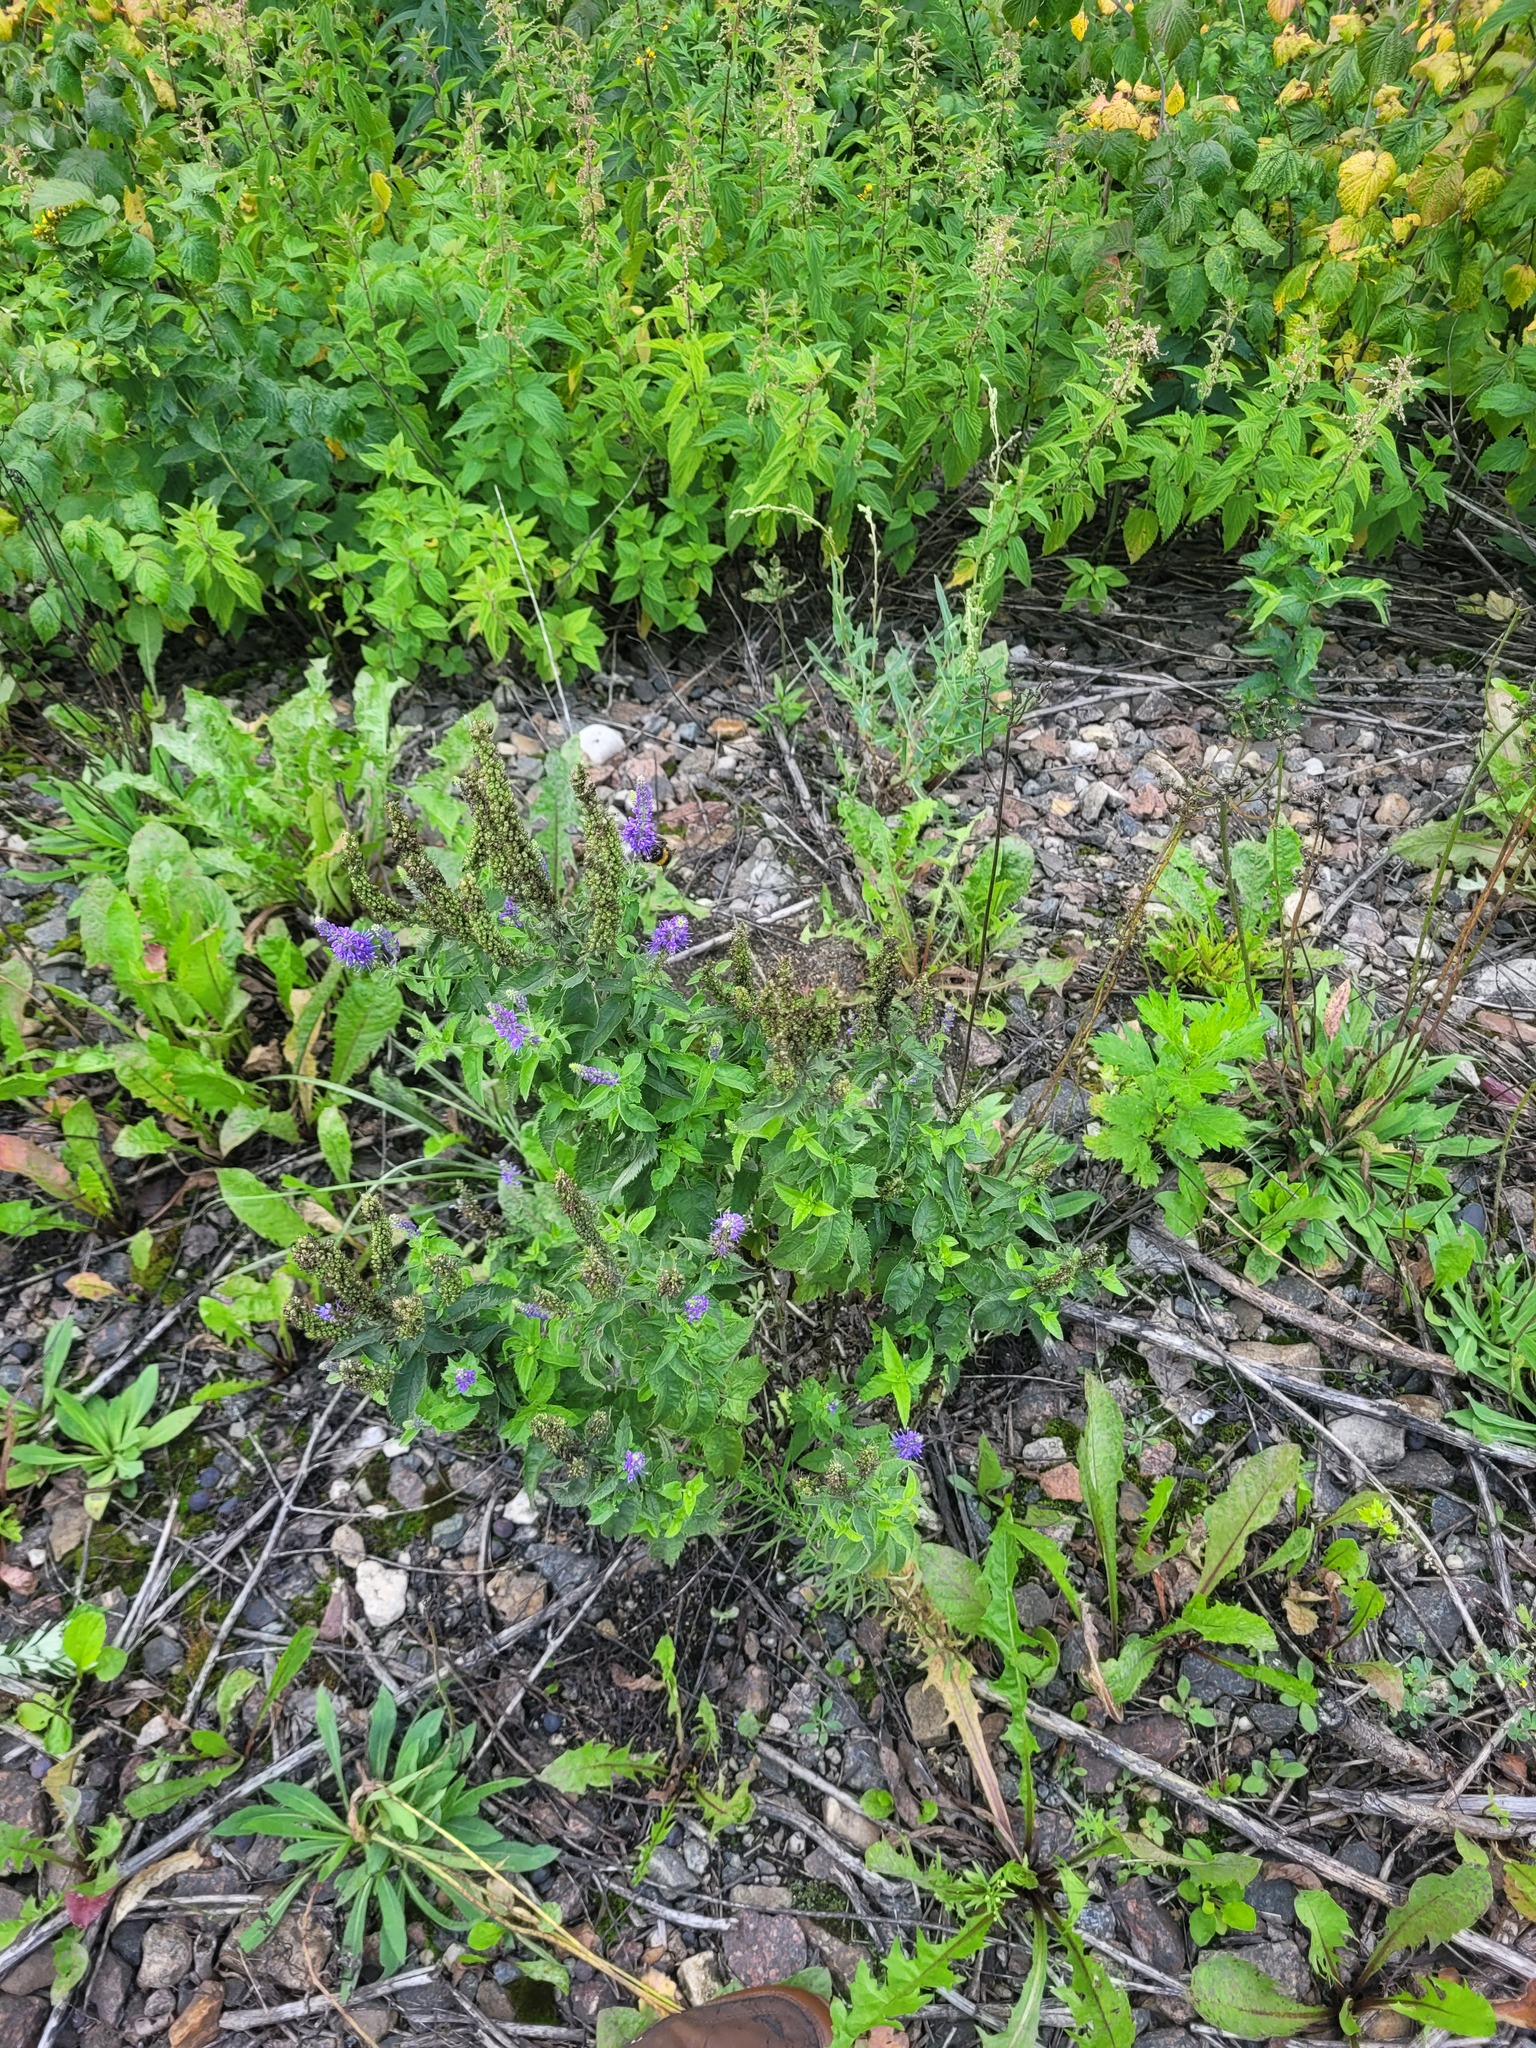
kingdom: Plantae
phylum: Tracheophyta
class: Magnoliopsida
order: Lamiales
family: Plantaginaceae
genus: Veronica
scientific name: Veronica longifolia
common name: Garden speedwell
